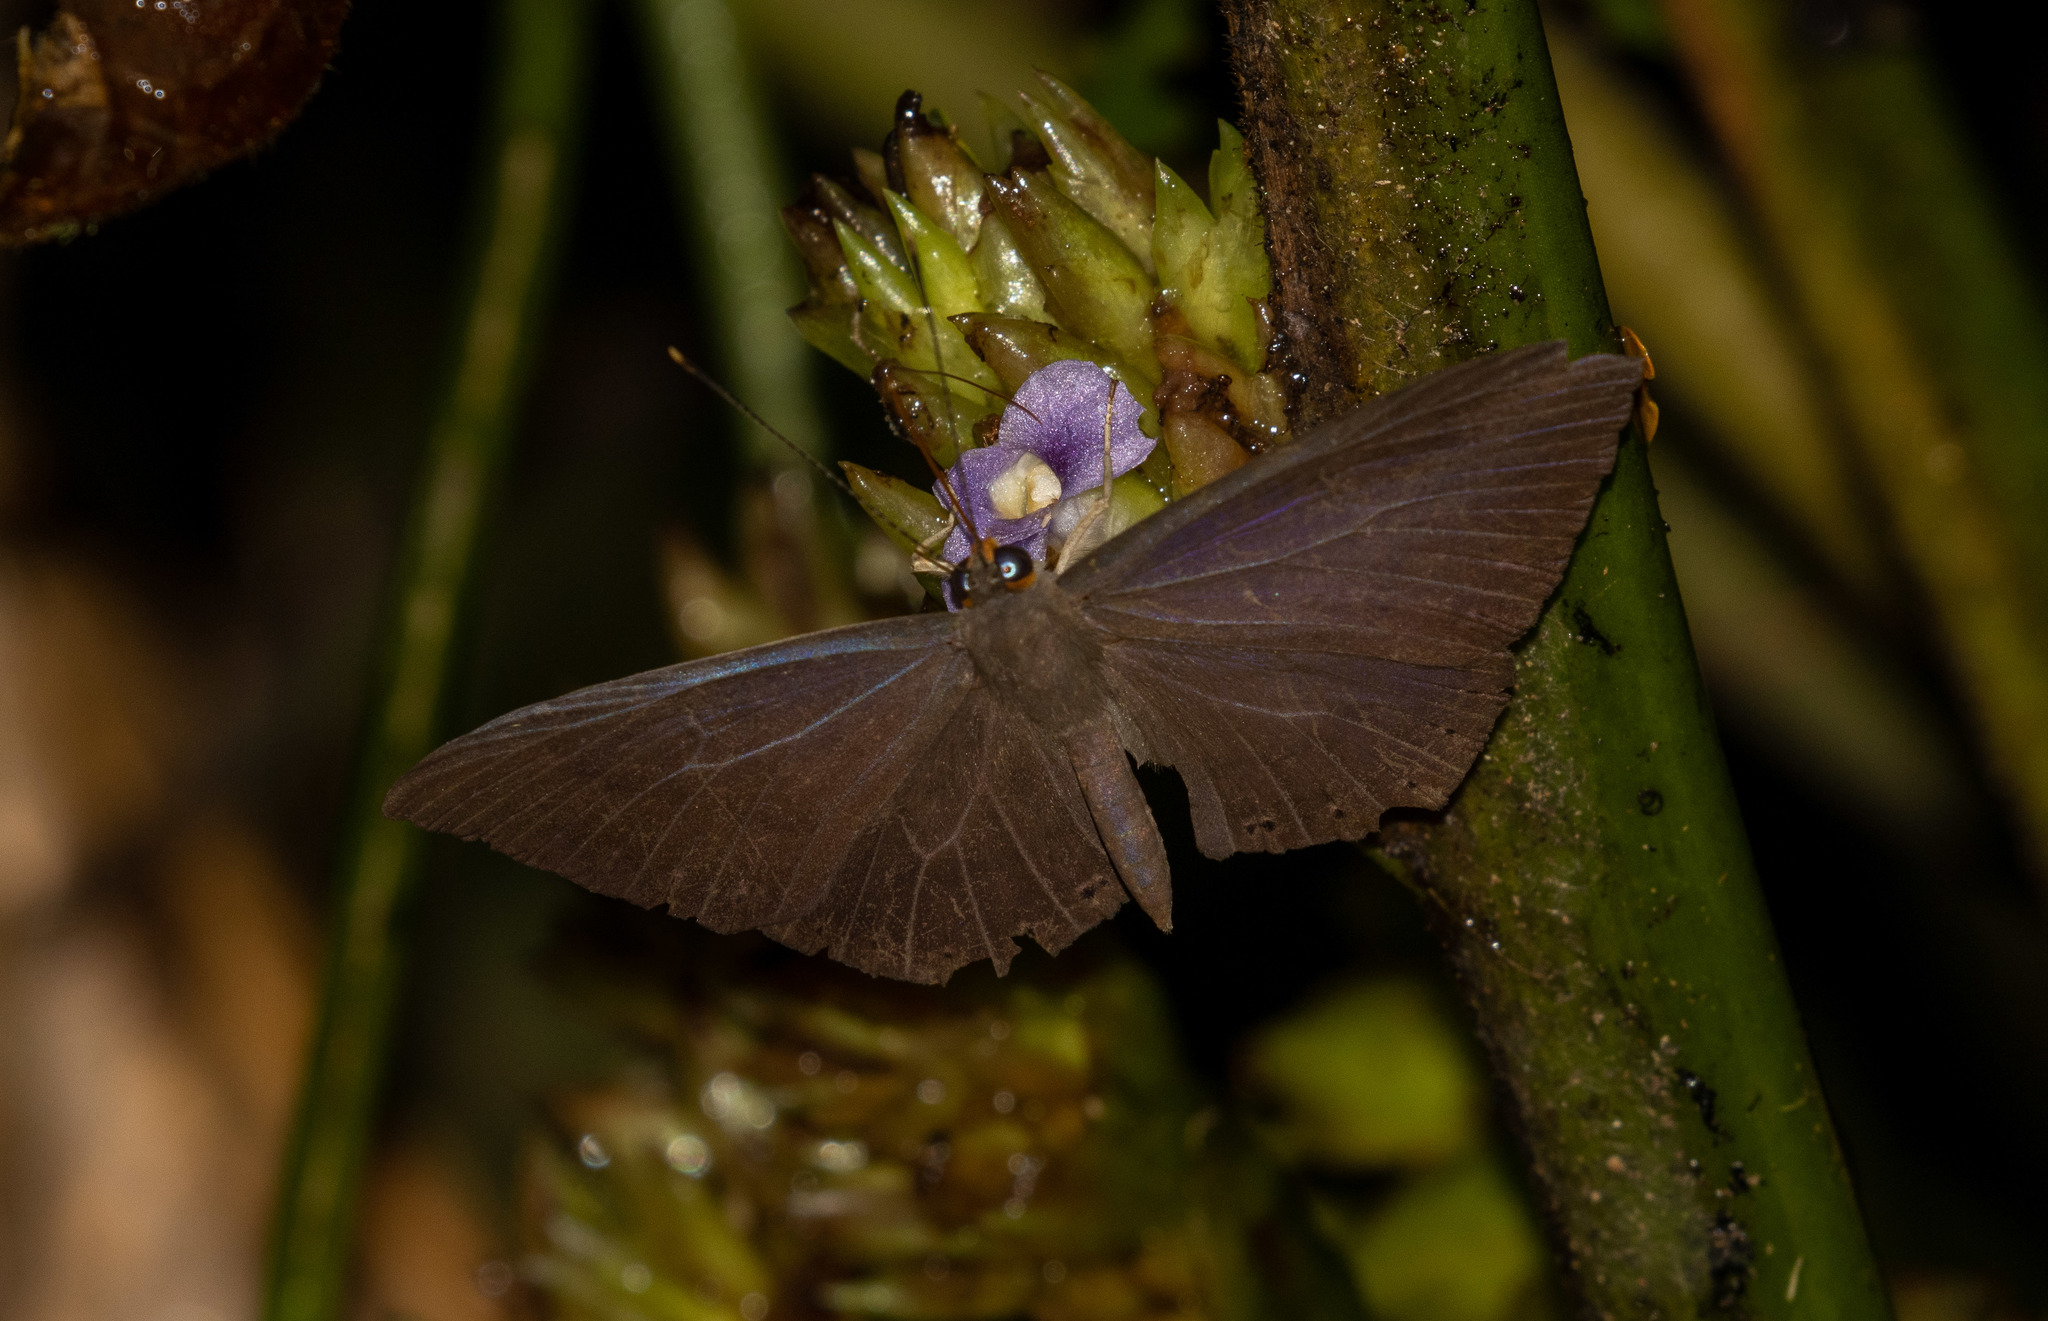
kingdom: Animalia
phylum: Arthropoda
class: Insecta
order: Lepidoptera
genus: Eurybia
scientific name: Eurybia
